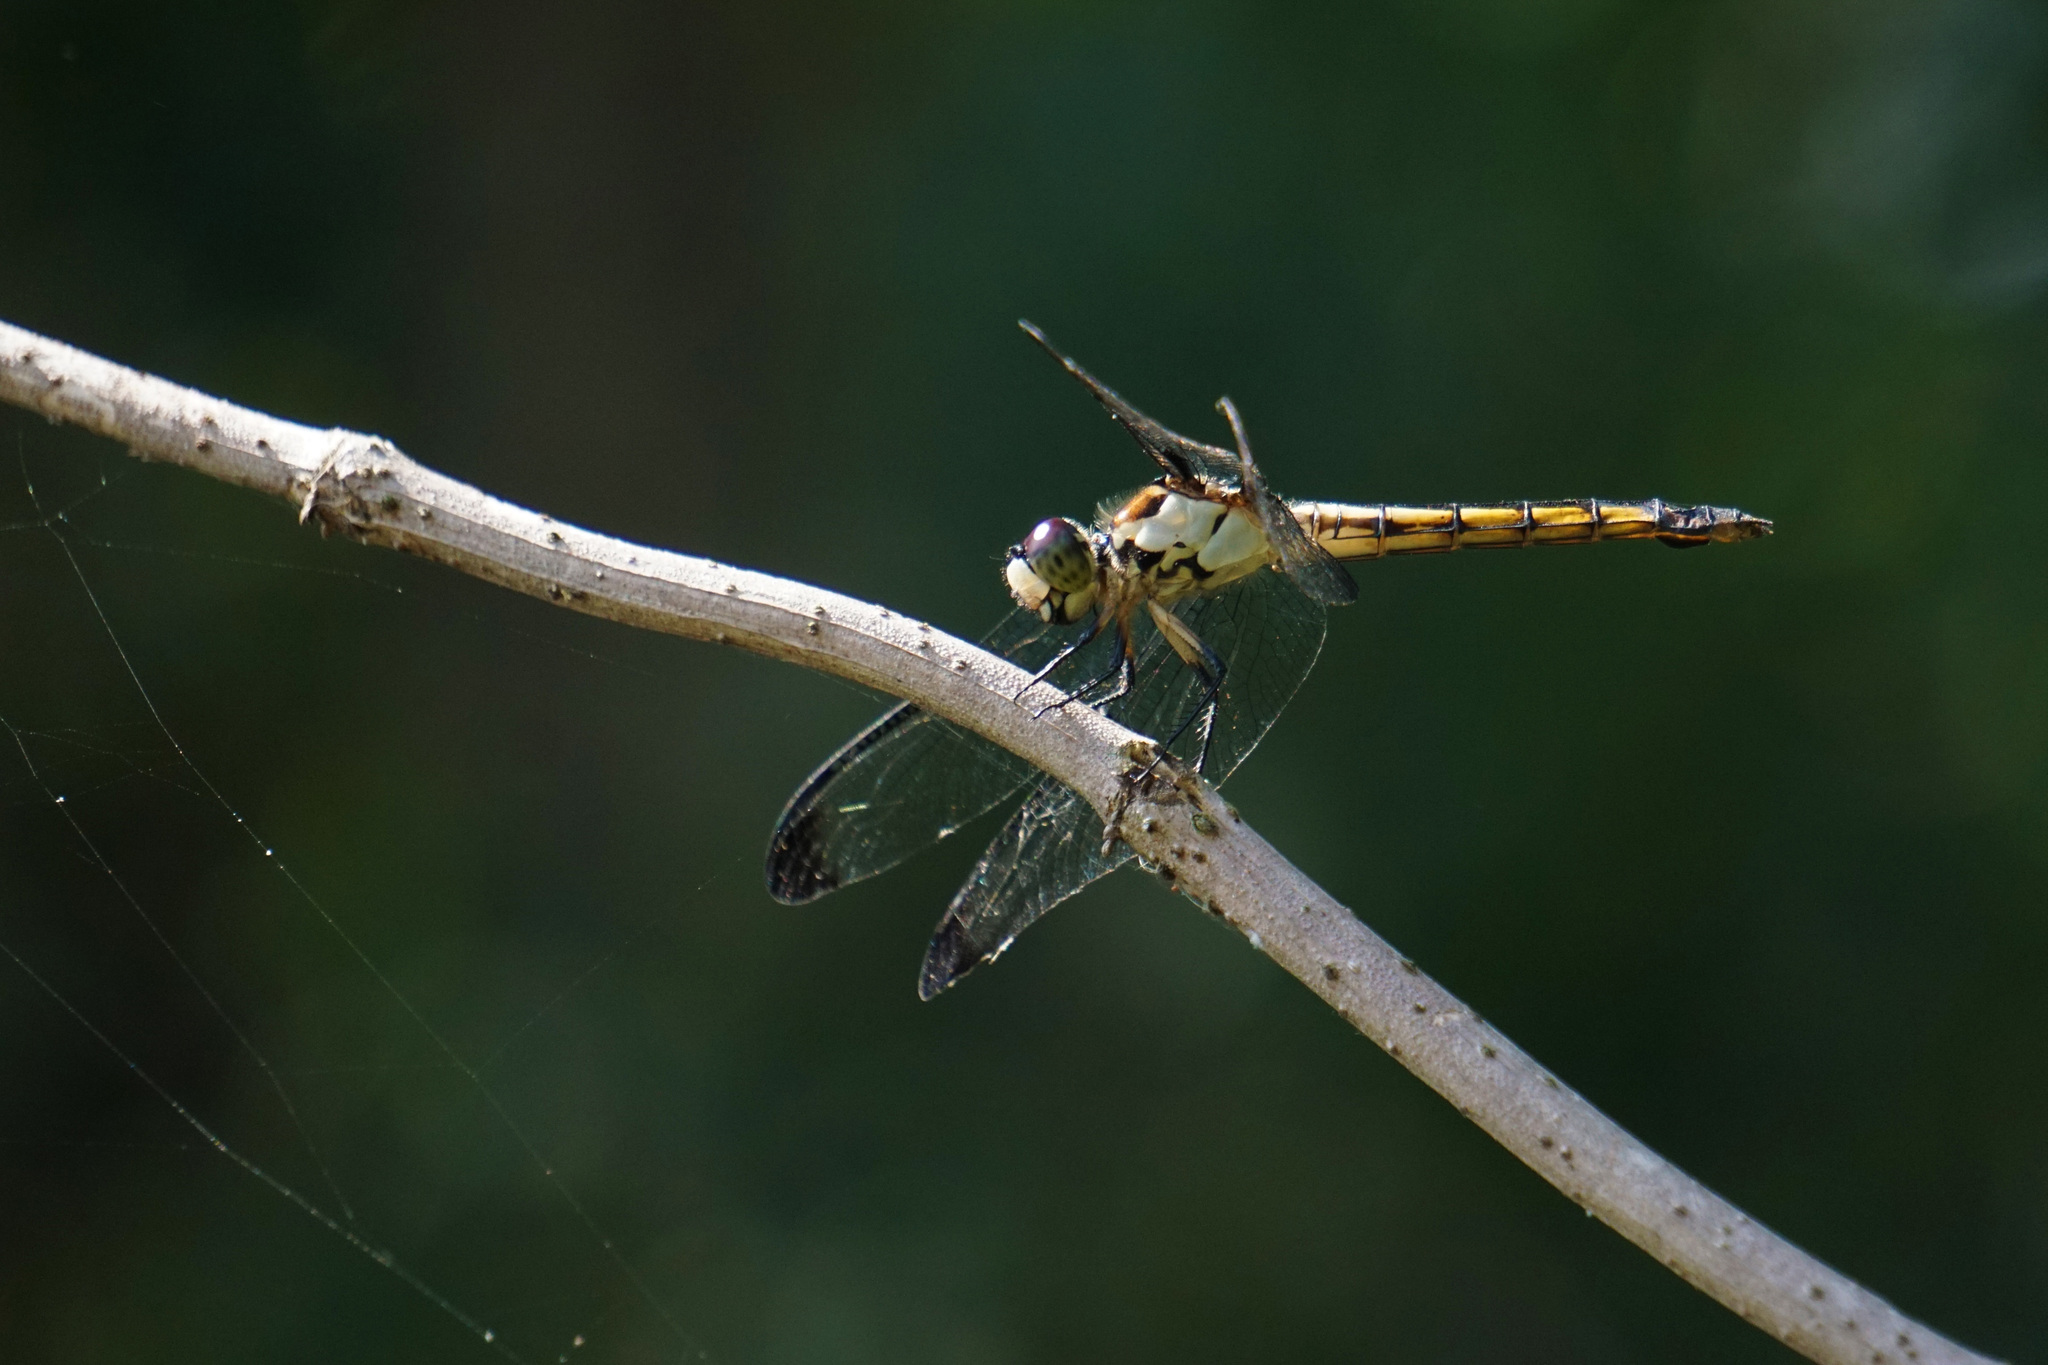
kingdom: Animalia
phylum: Arthropoda
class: Insecta
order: Odonata
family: Libellulidae
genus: Libellula
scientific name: Libellula vibrans
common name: Great blue skimmer
